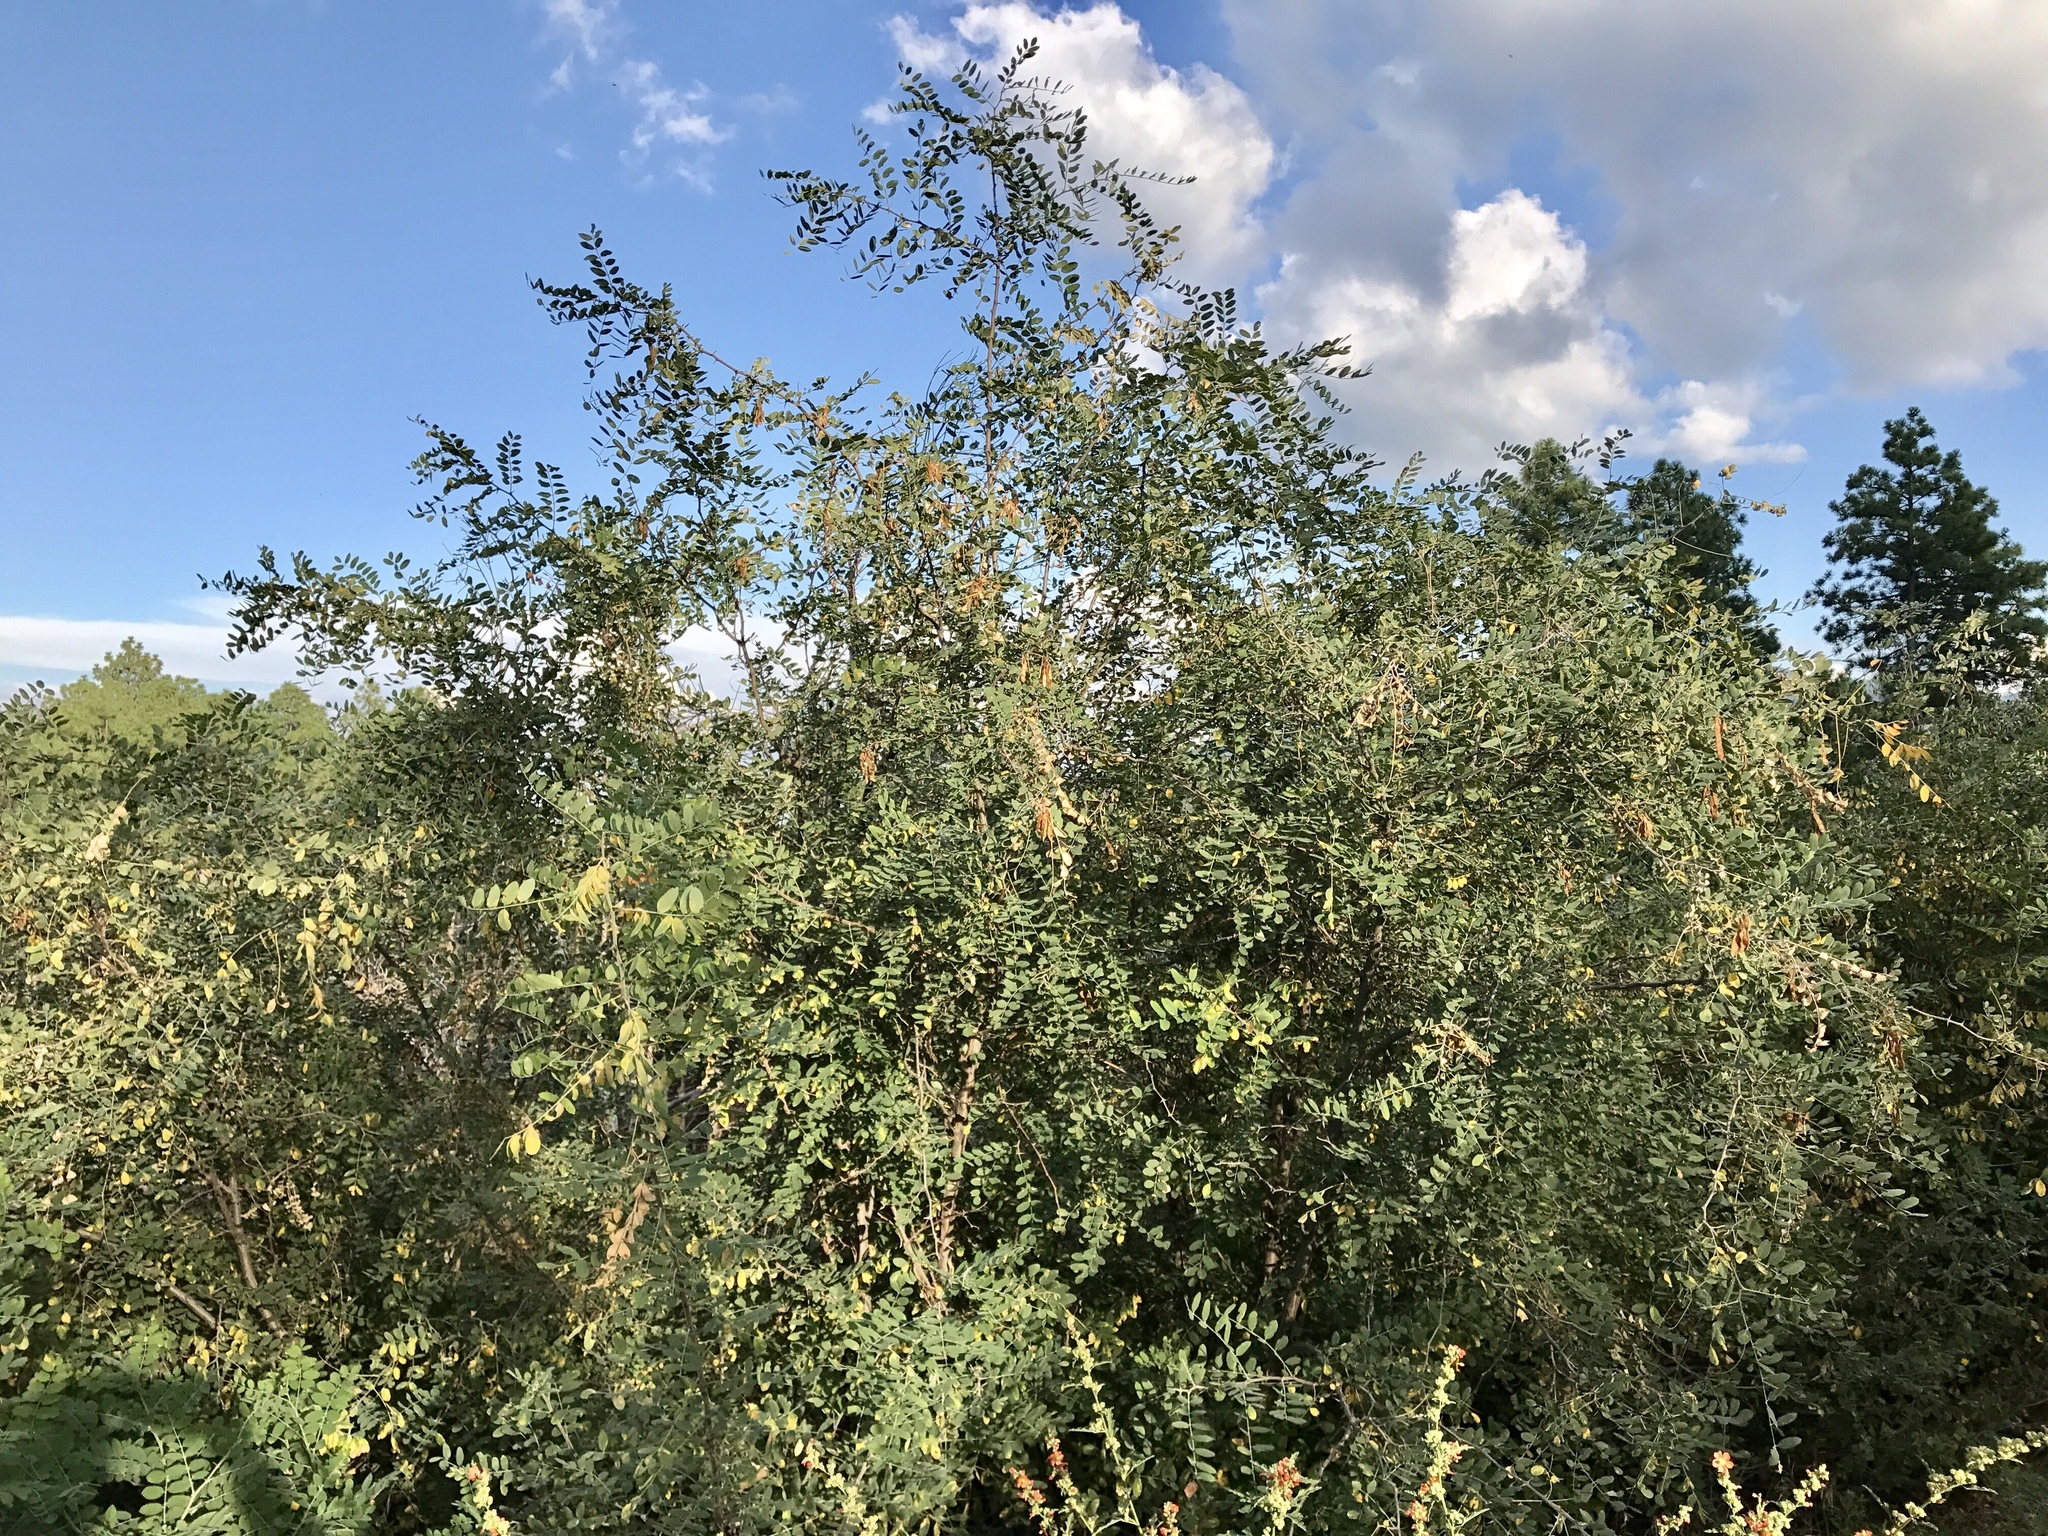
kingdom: Plantae
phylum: Tracheophyta
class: Magnoliopsida
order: Fabales
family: Fabaceae
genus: Robinia
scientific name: Robinia neomexicana
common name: New mexico locust
